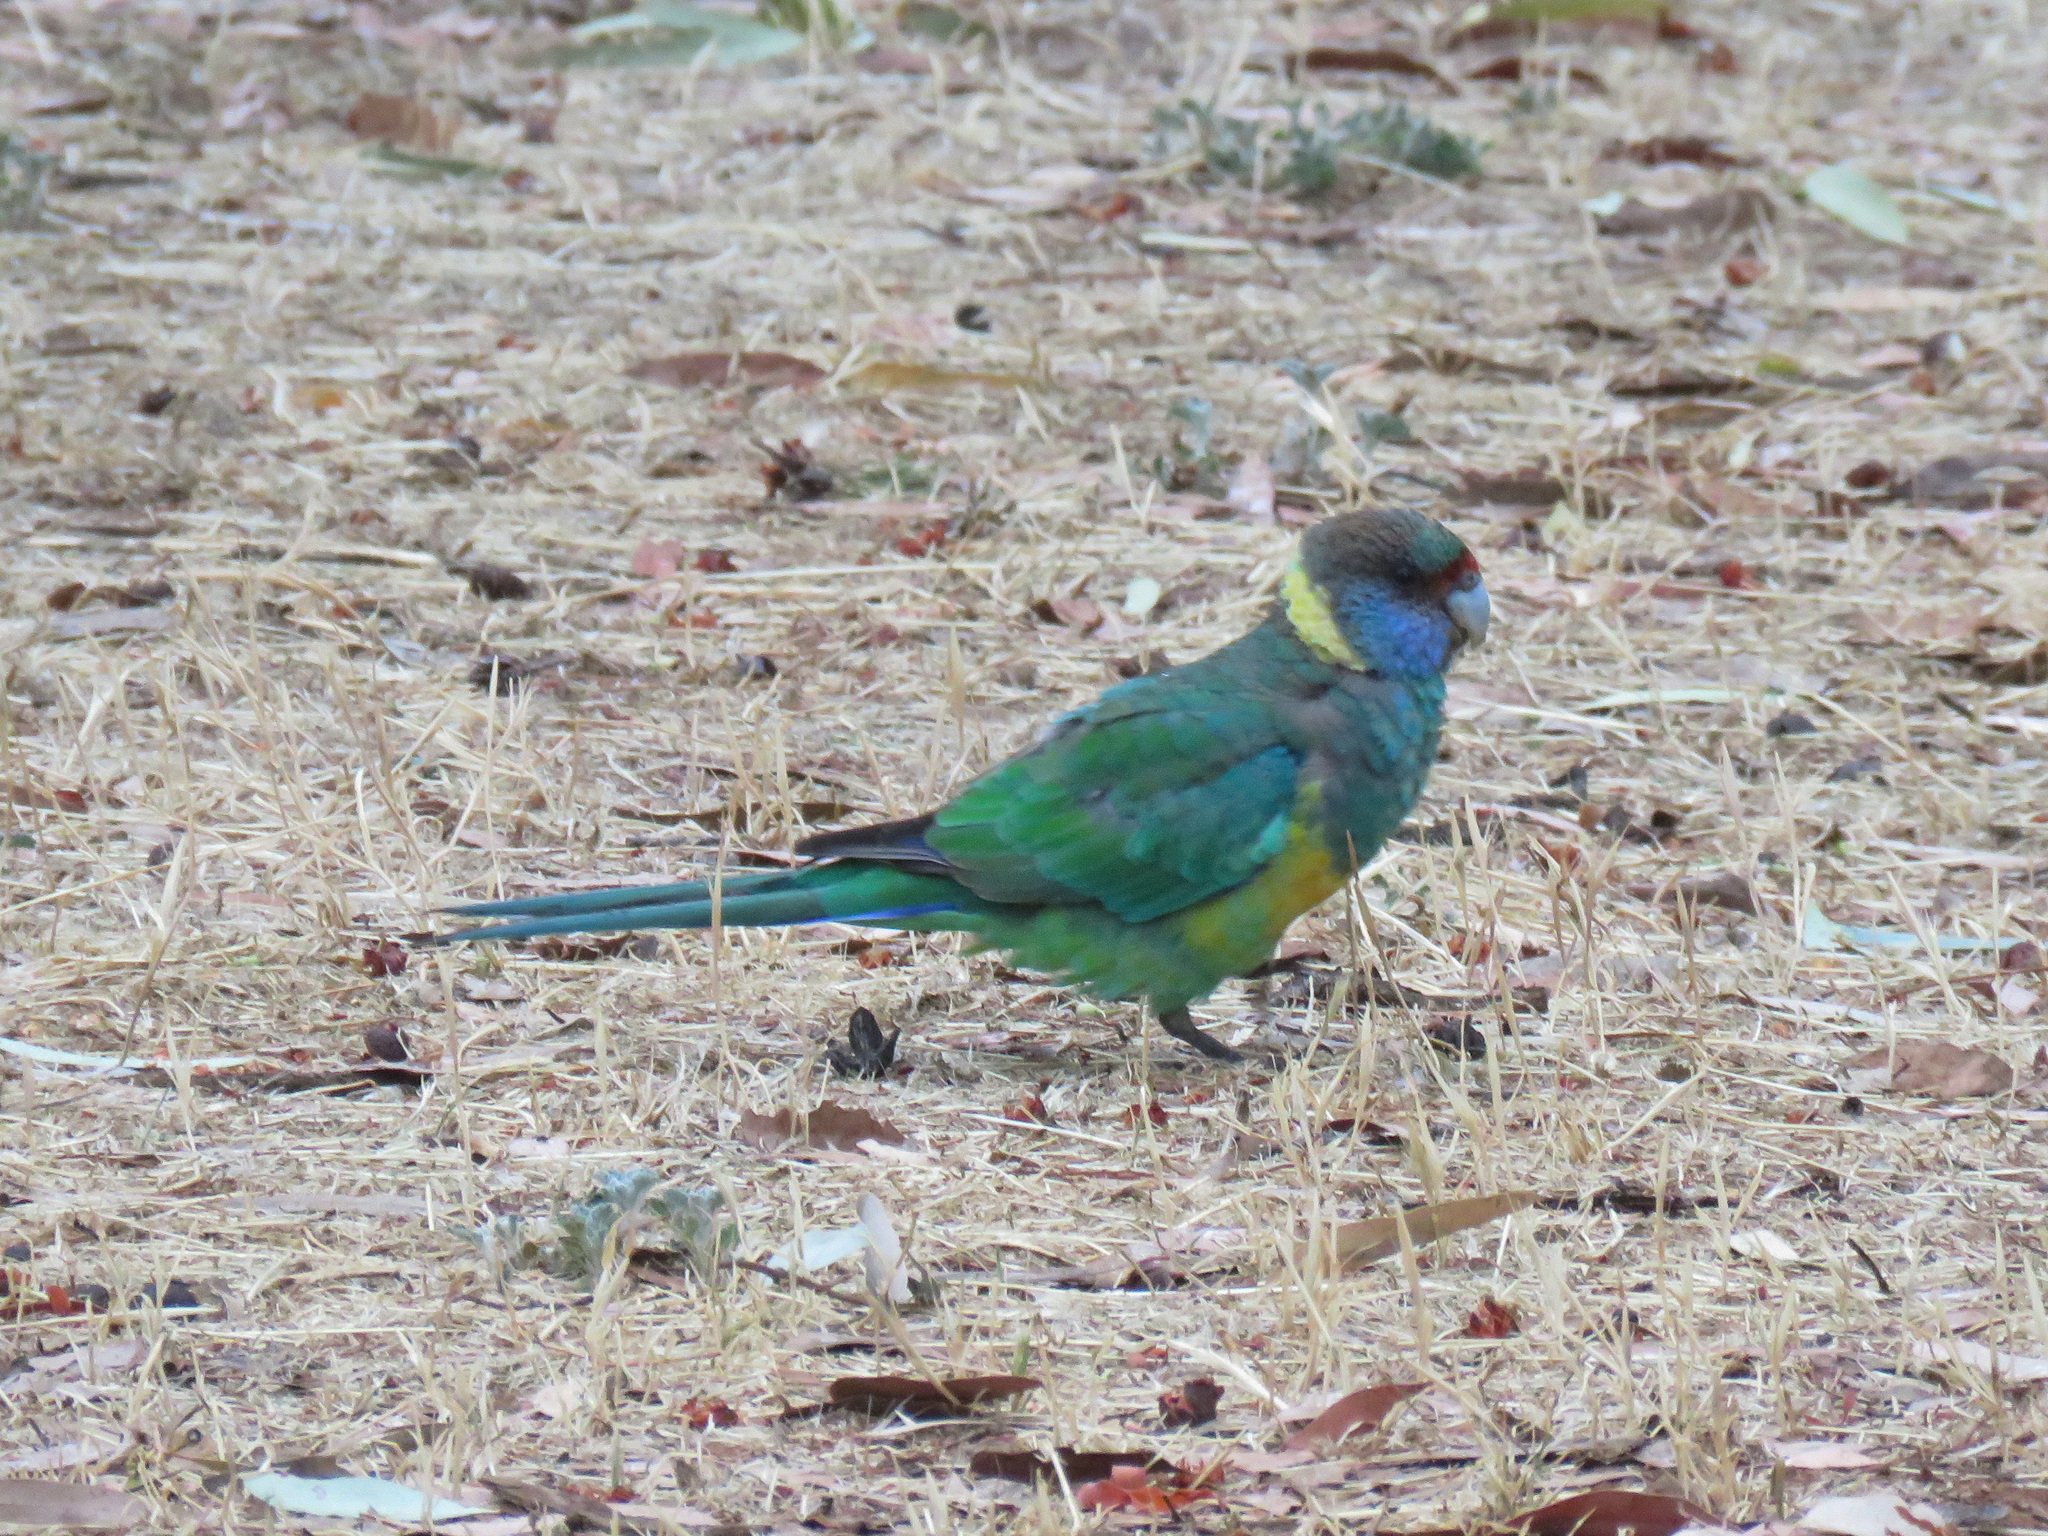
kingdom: Animalia
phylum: Chordata
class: Aves
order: Psittaciformes
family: Psittacidae
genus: Barnardius
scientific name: Barnardius zonarius
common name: Australian ringneck
